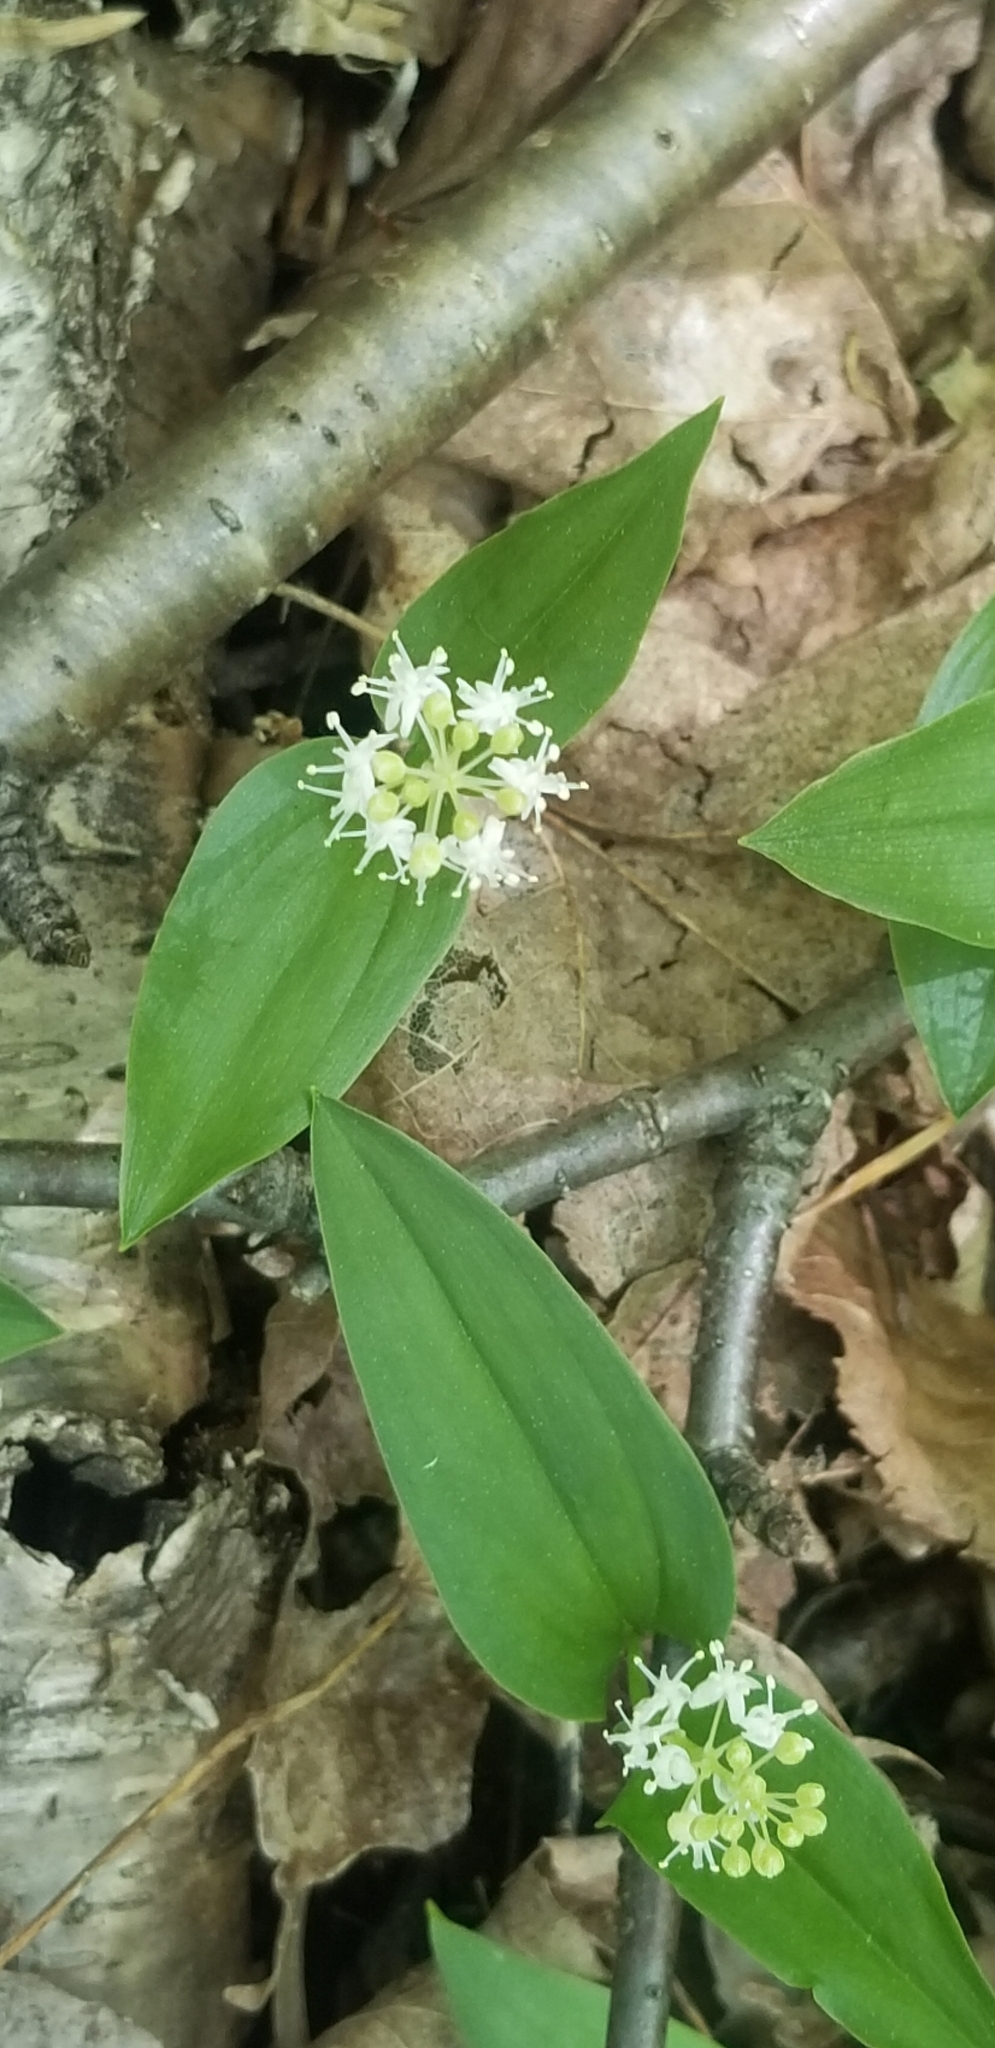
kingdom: Plantae
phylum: Tracheophyta
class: Liliopsida
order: Asparagales
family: Asparagaceae
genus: Maianthemum
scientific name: Maianthemum canadense
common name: False lily-of-the-valley
